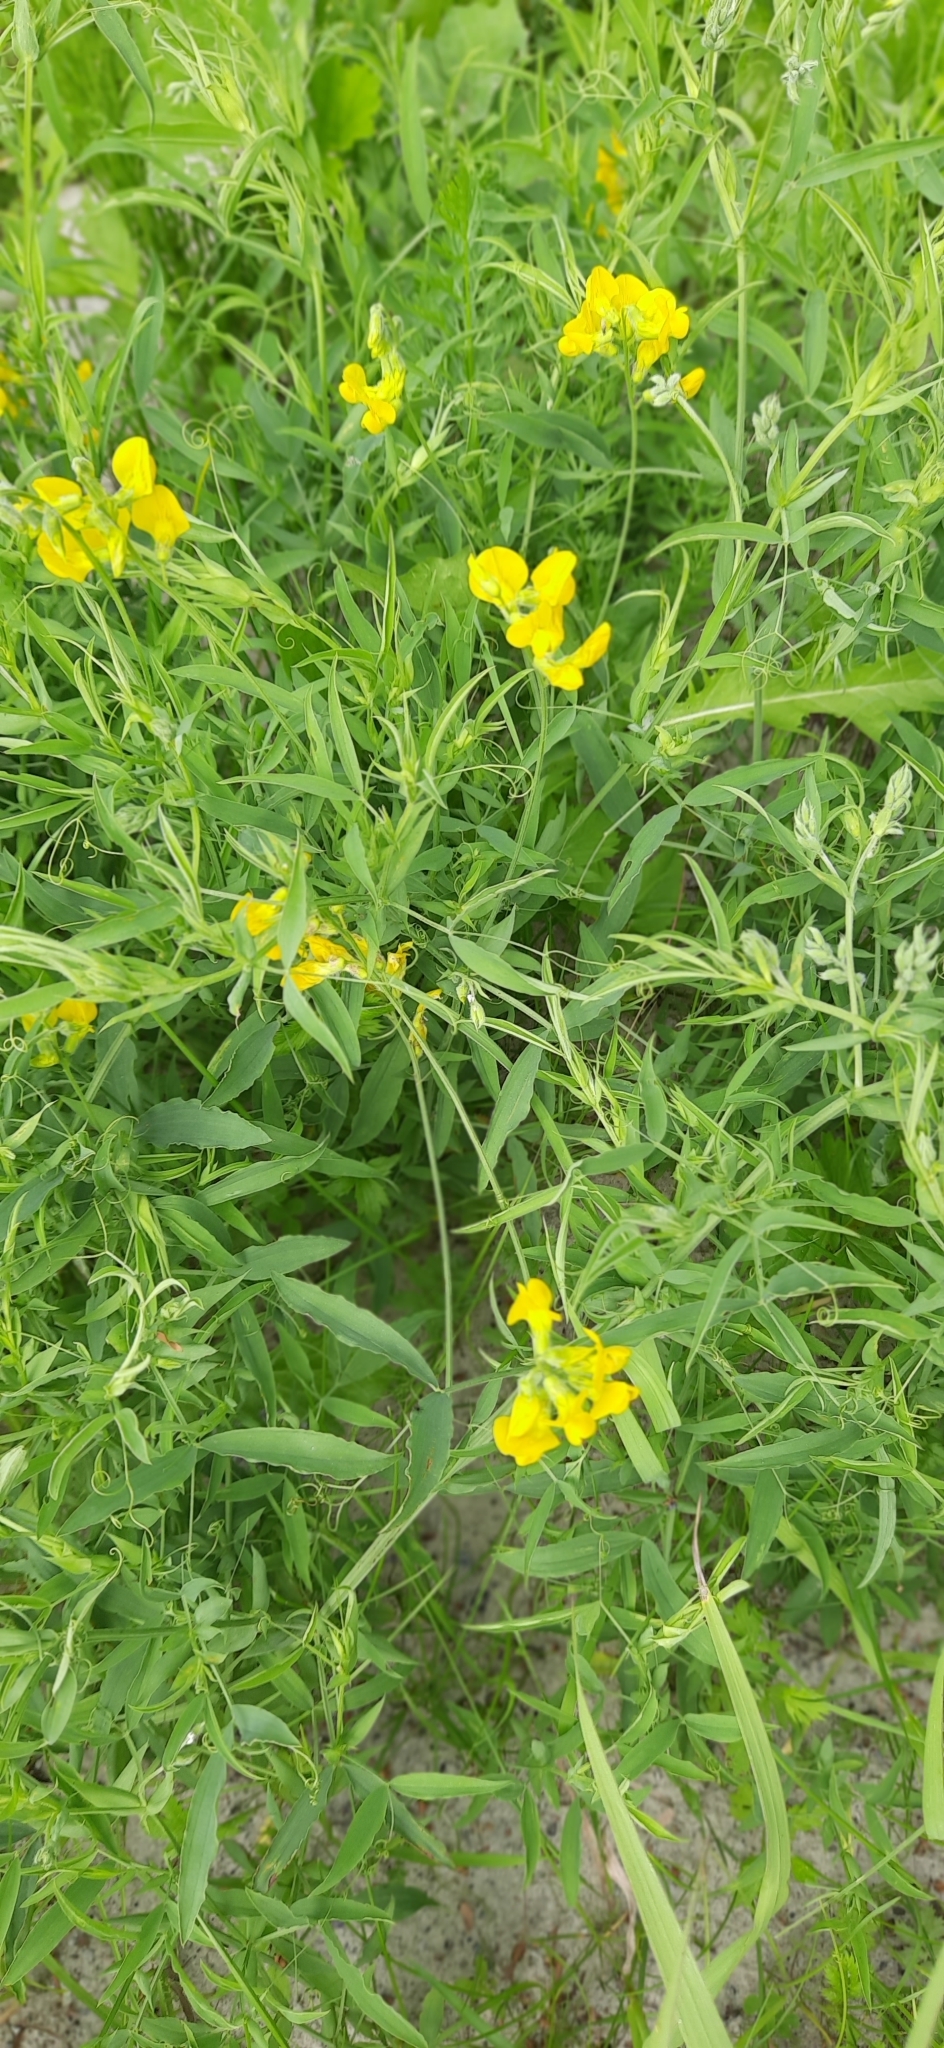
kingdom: Plantae
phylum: Tracheophyta
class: Magnoliopsida
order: Fabales
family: Fabaceae
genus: Lathyrus
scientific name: Lathyrus pratensis
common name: Meadow vetchling
